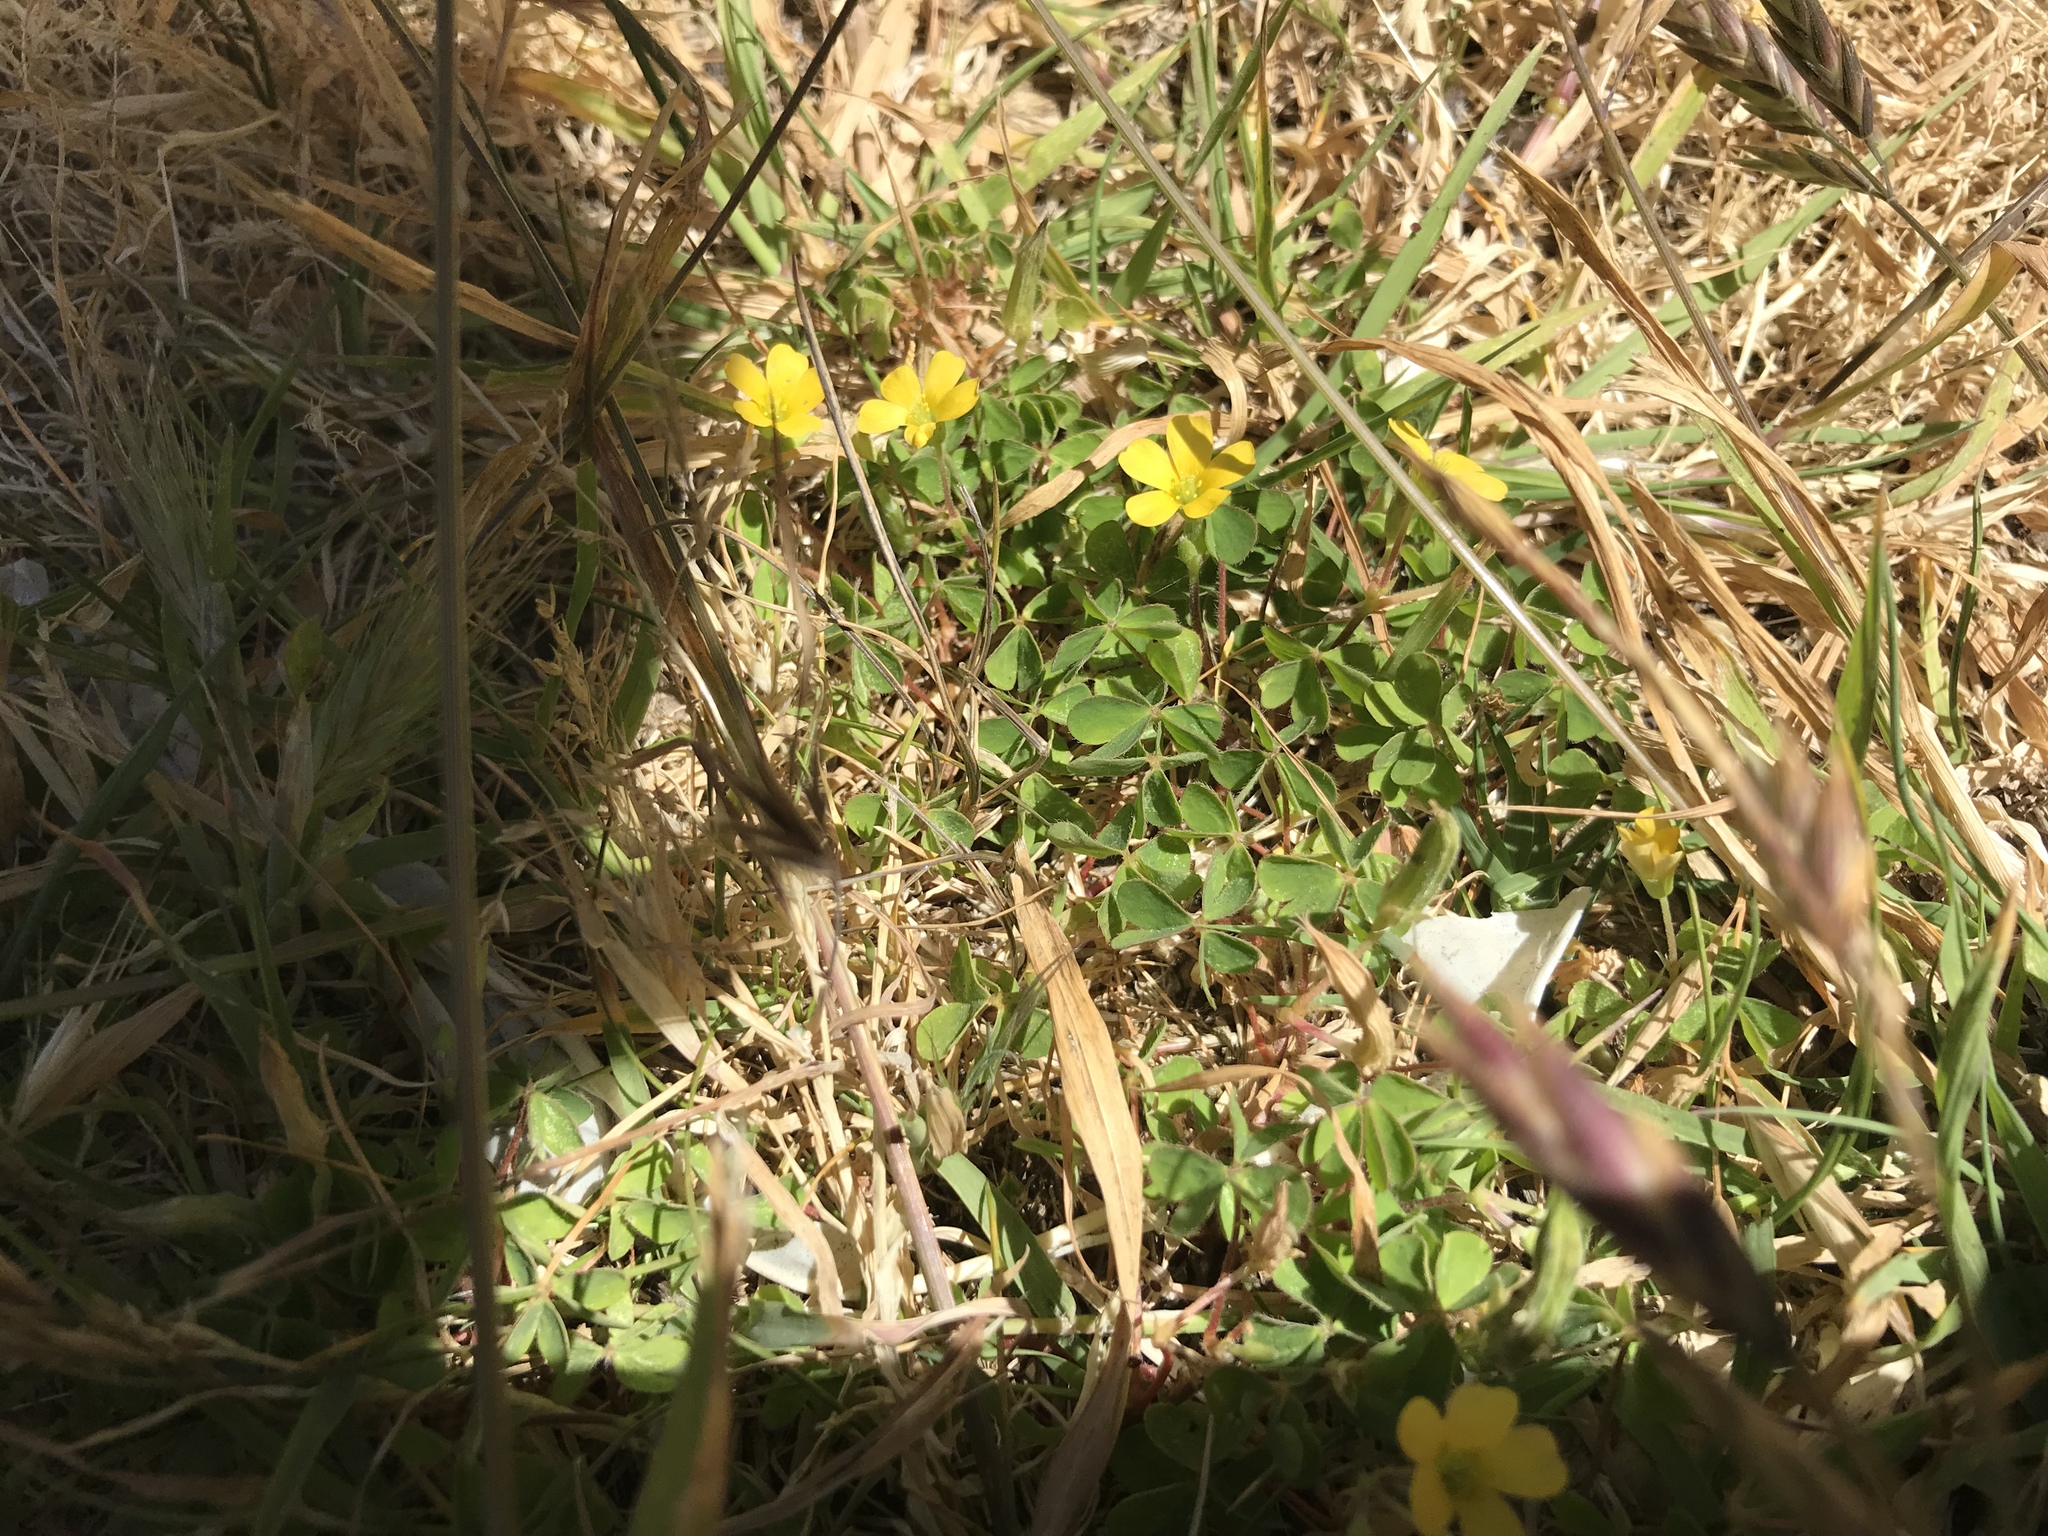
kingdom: Plantae
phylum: Tracheophyta
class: Magnoliopsida
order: Oxalidales
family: Oxalidaceae
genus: Oxalis
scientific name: Oxalis corniculata
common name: Procumbent yellow-sorrel
